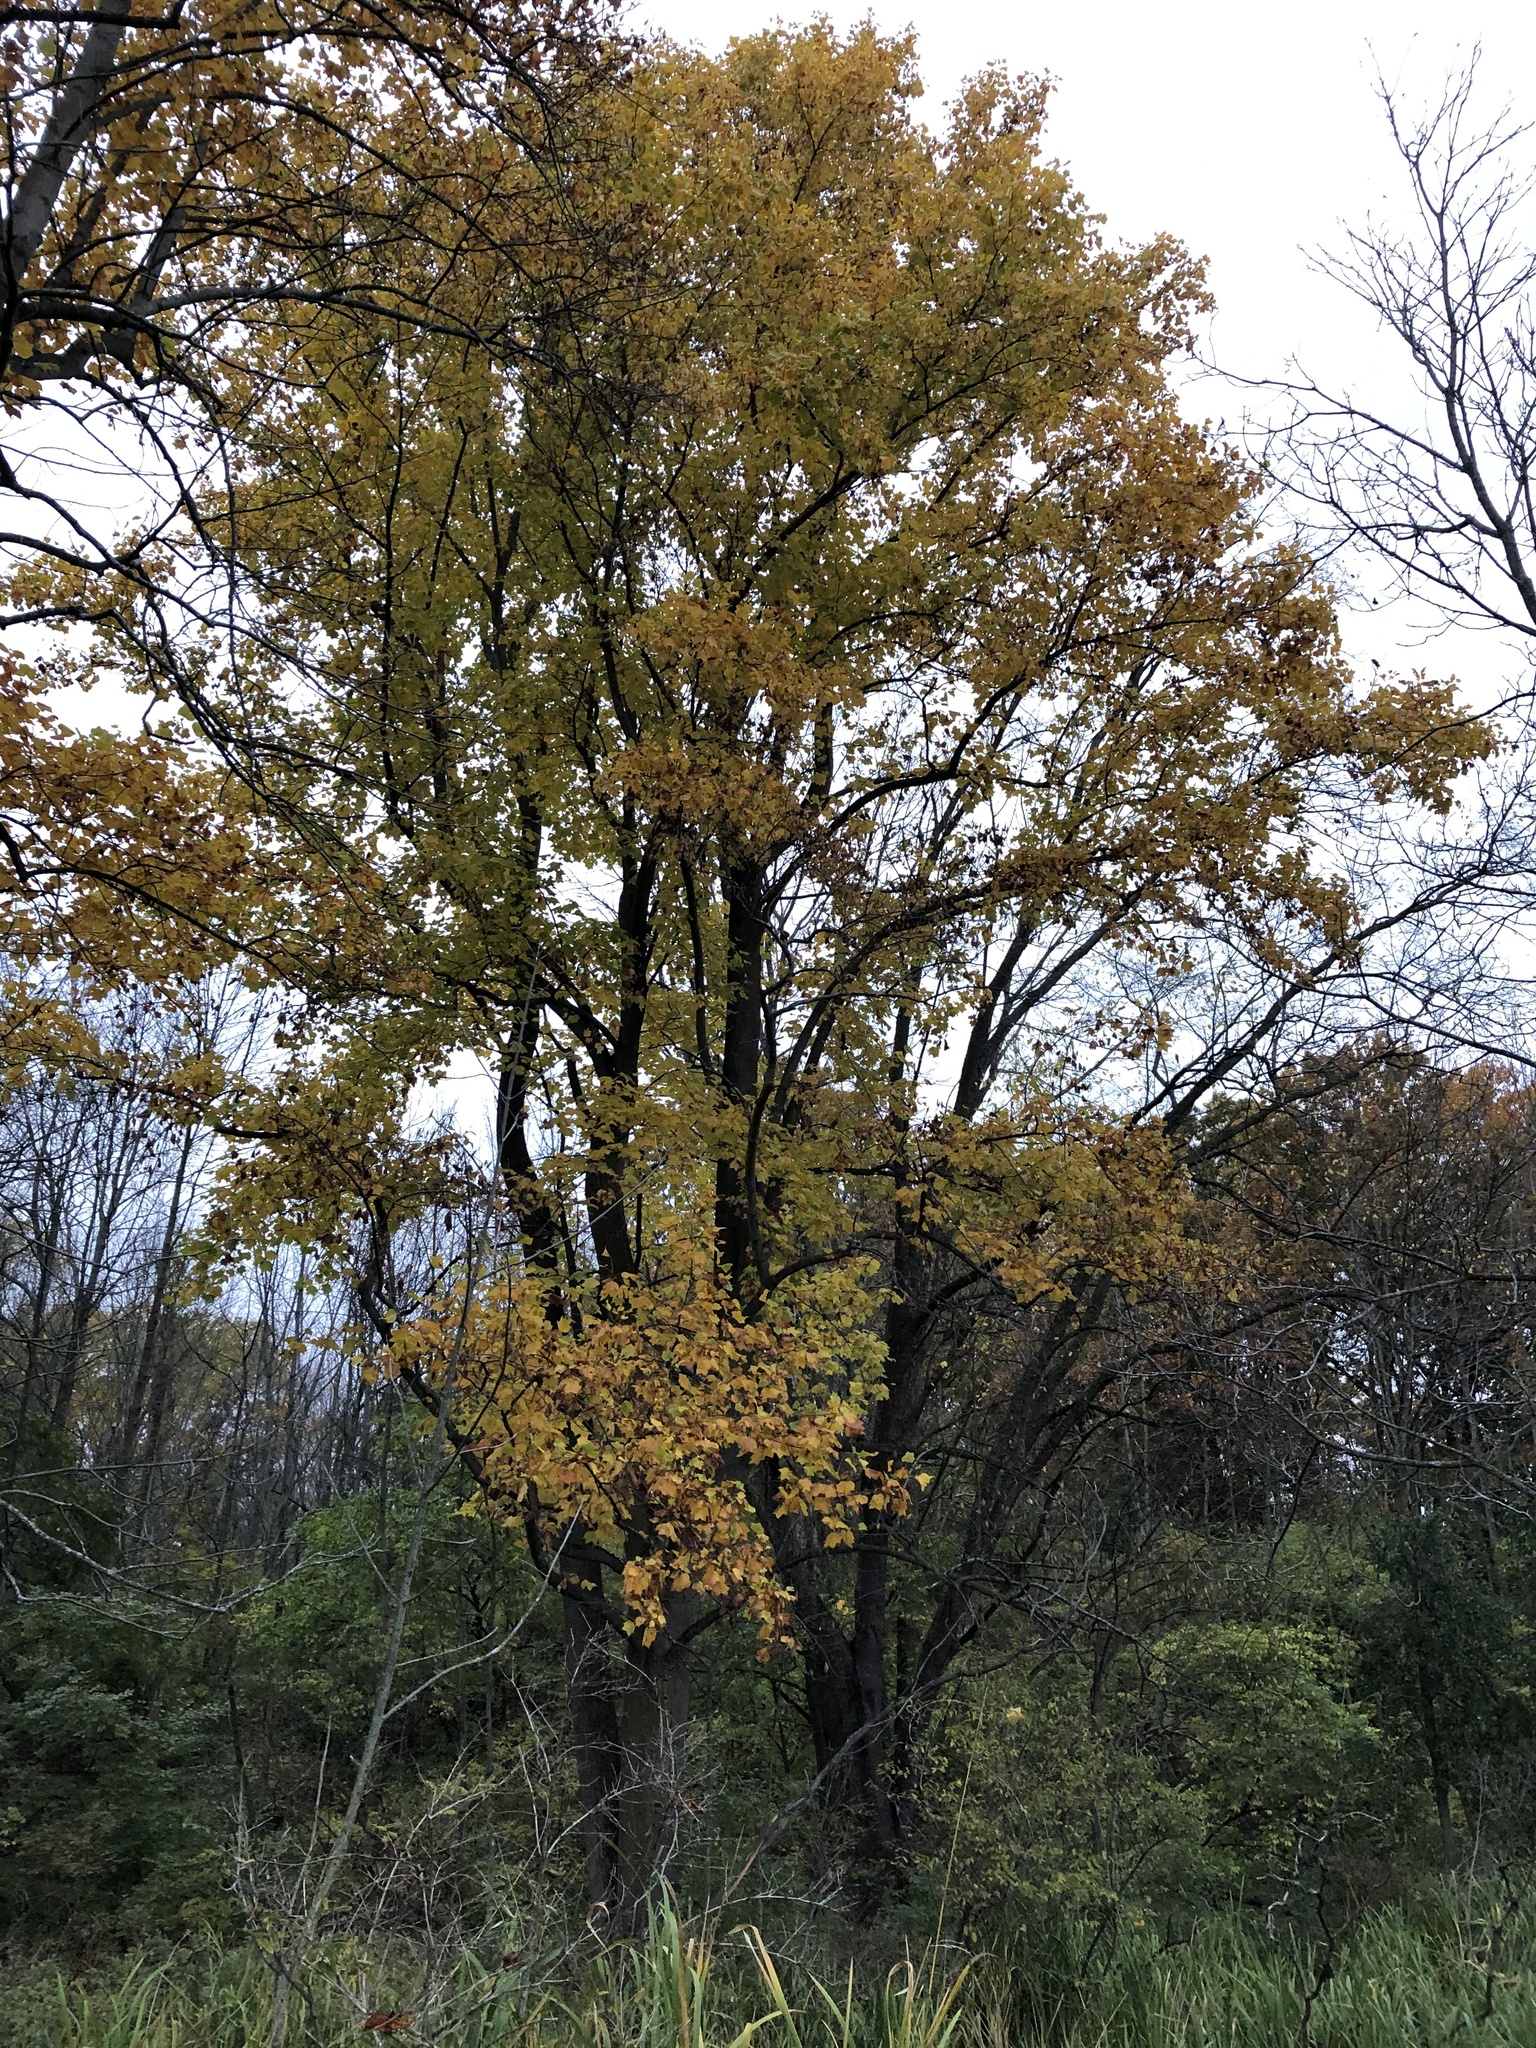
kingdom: Plantae
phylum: Tracheophyta
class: Magnoliopsida
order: Magnoliales
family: Magnoliaceae
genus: Liriodendron
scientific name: Liriodendron tulipifera
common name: Tulip tree
